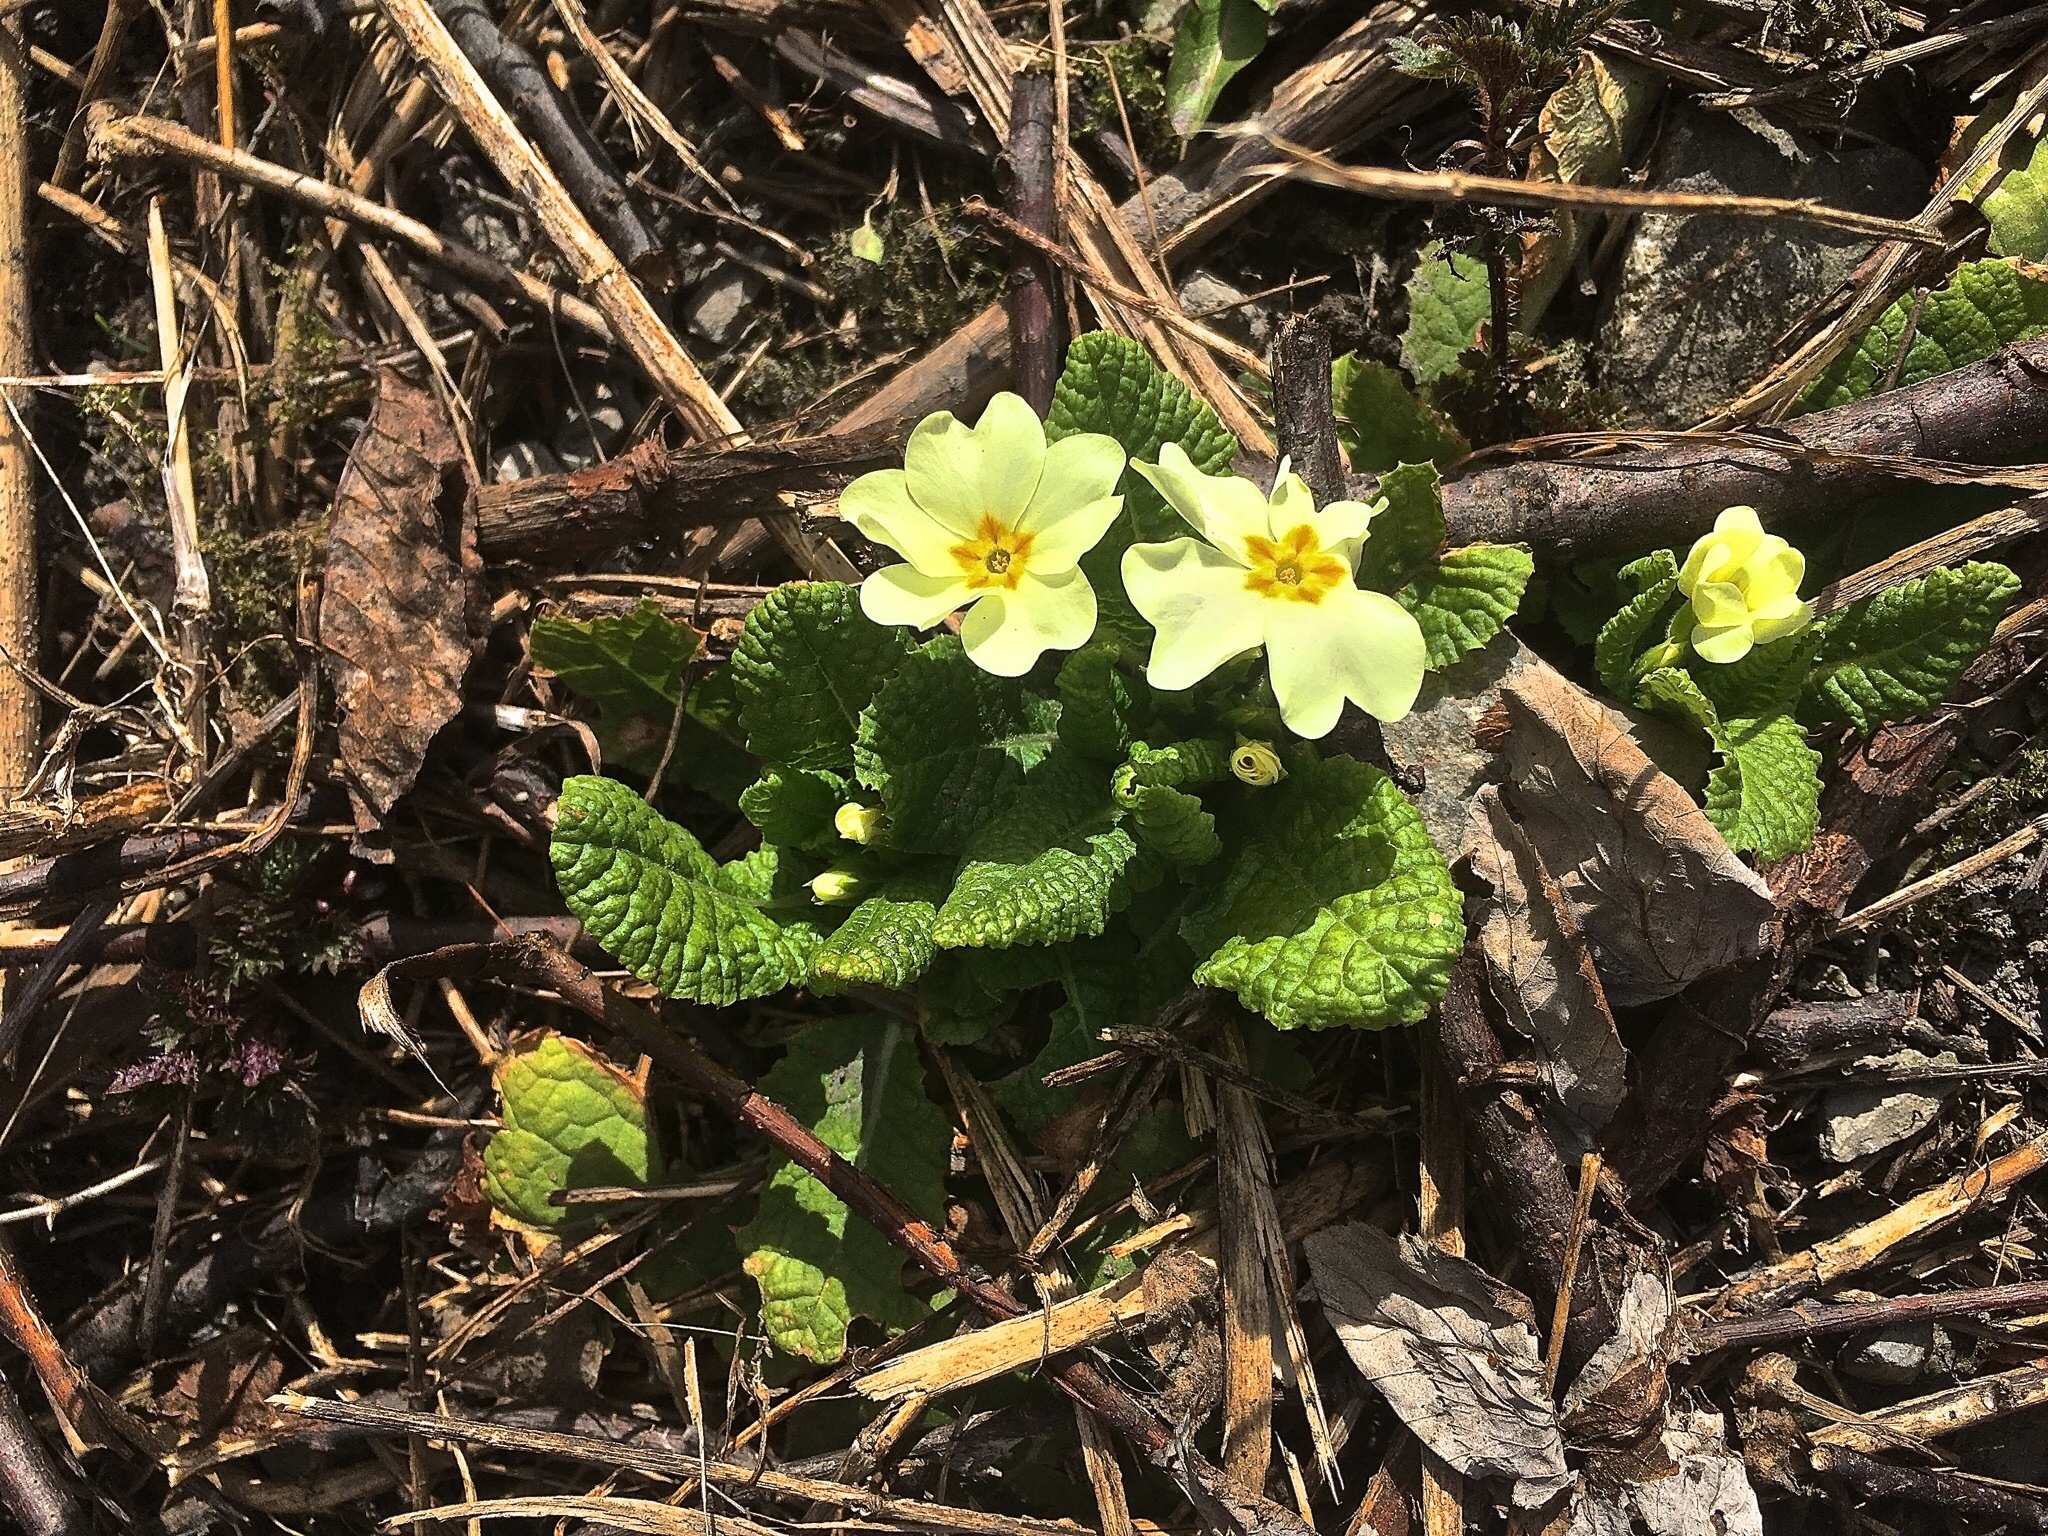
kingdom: Plantae
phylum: Tracheophyta
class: Magnoliopsida
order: Ericales
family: Primulaceae
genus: Primula
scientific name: Primula vulgaris
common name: Primrose
